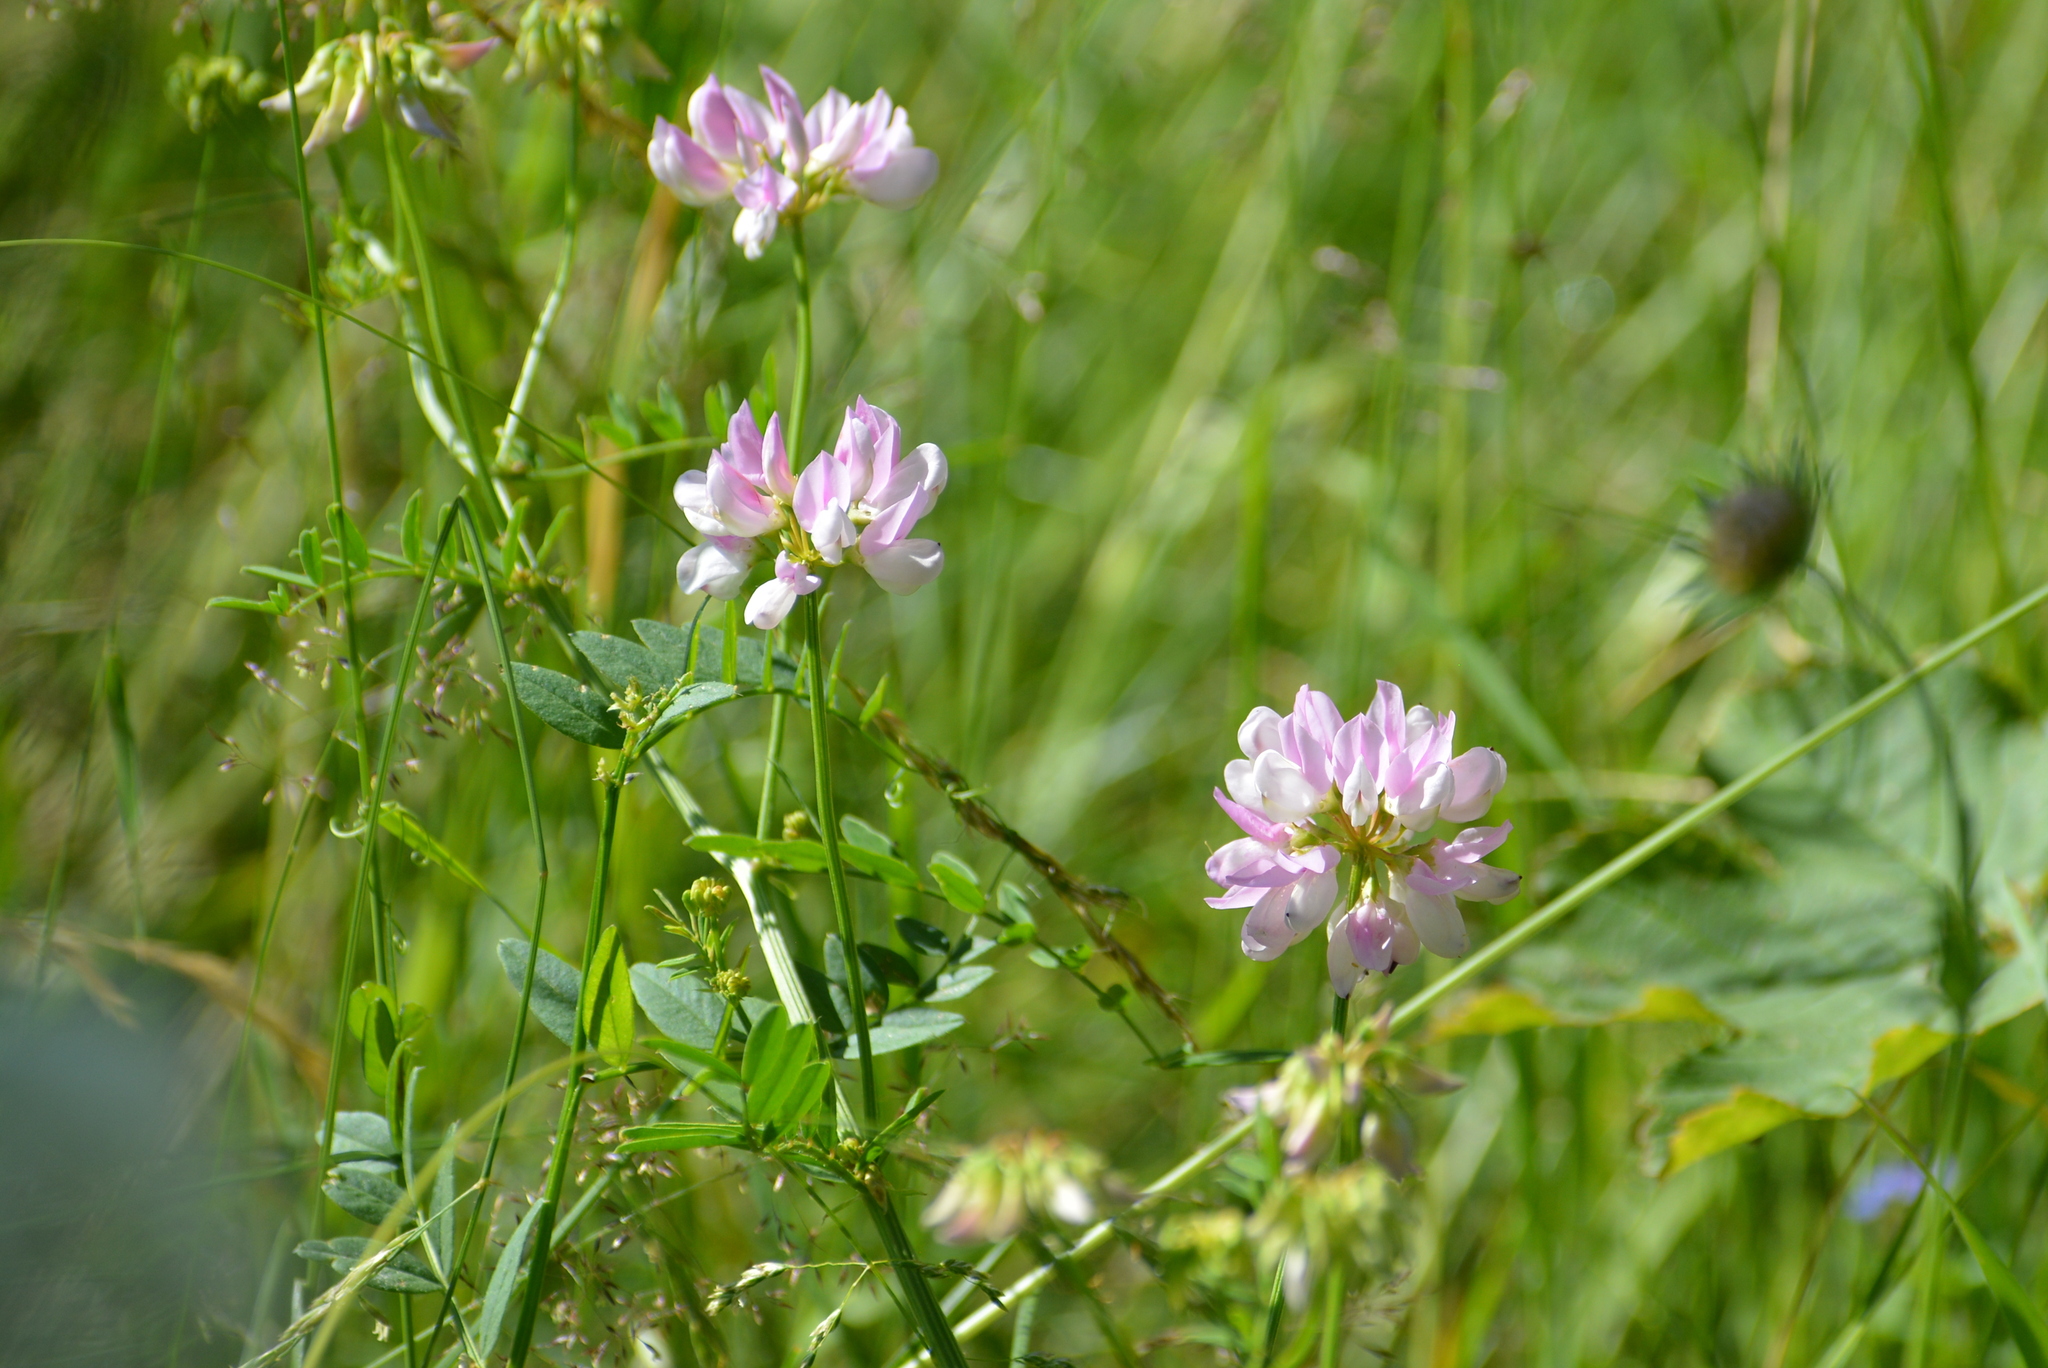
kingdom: Plantae
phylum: Tracheophyta
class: Magnoliopsida
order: Fabales
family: Fabaceae
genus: Coronilla
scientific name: Coronilla varia
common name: Crownvetch
